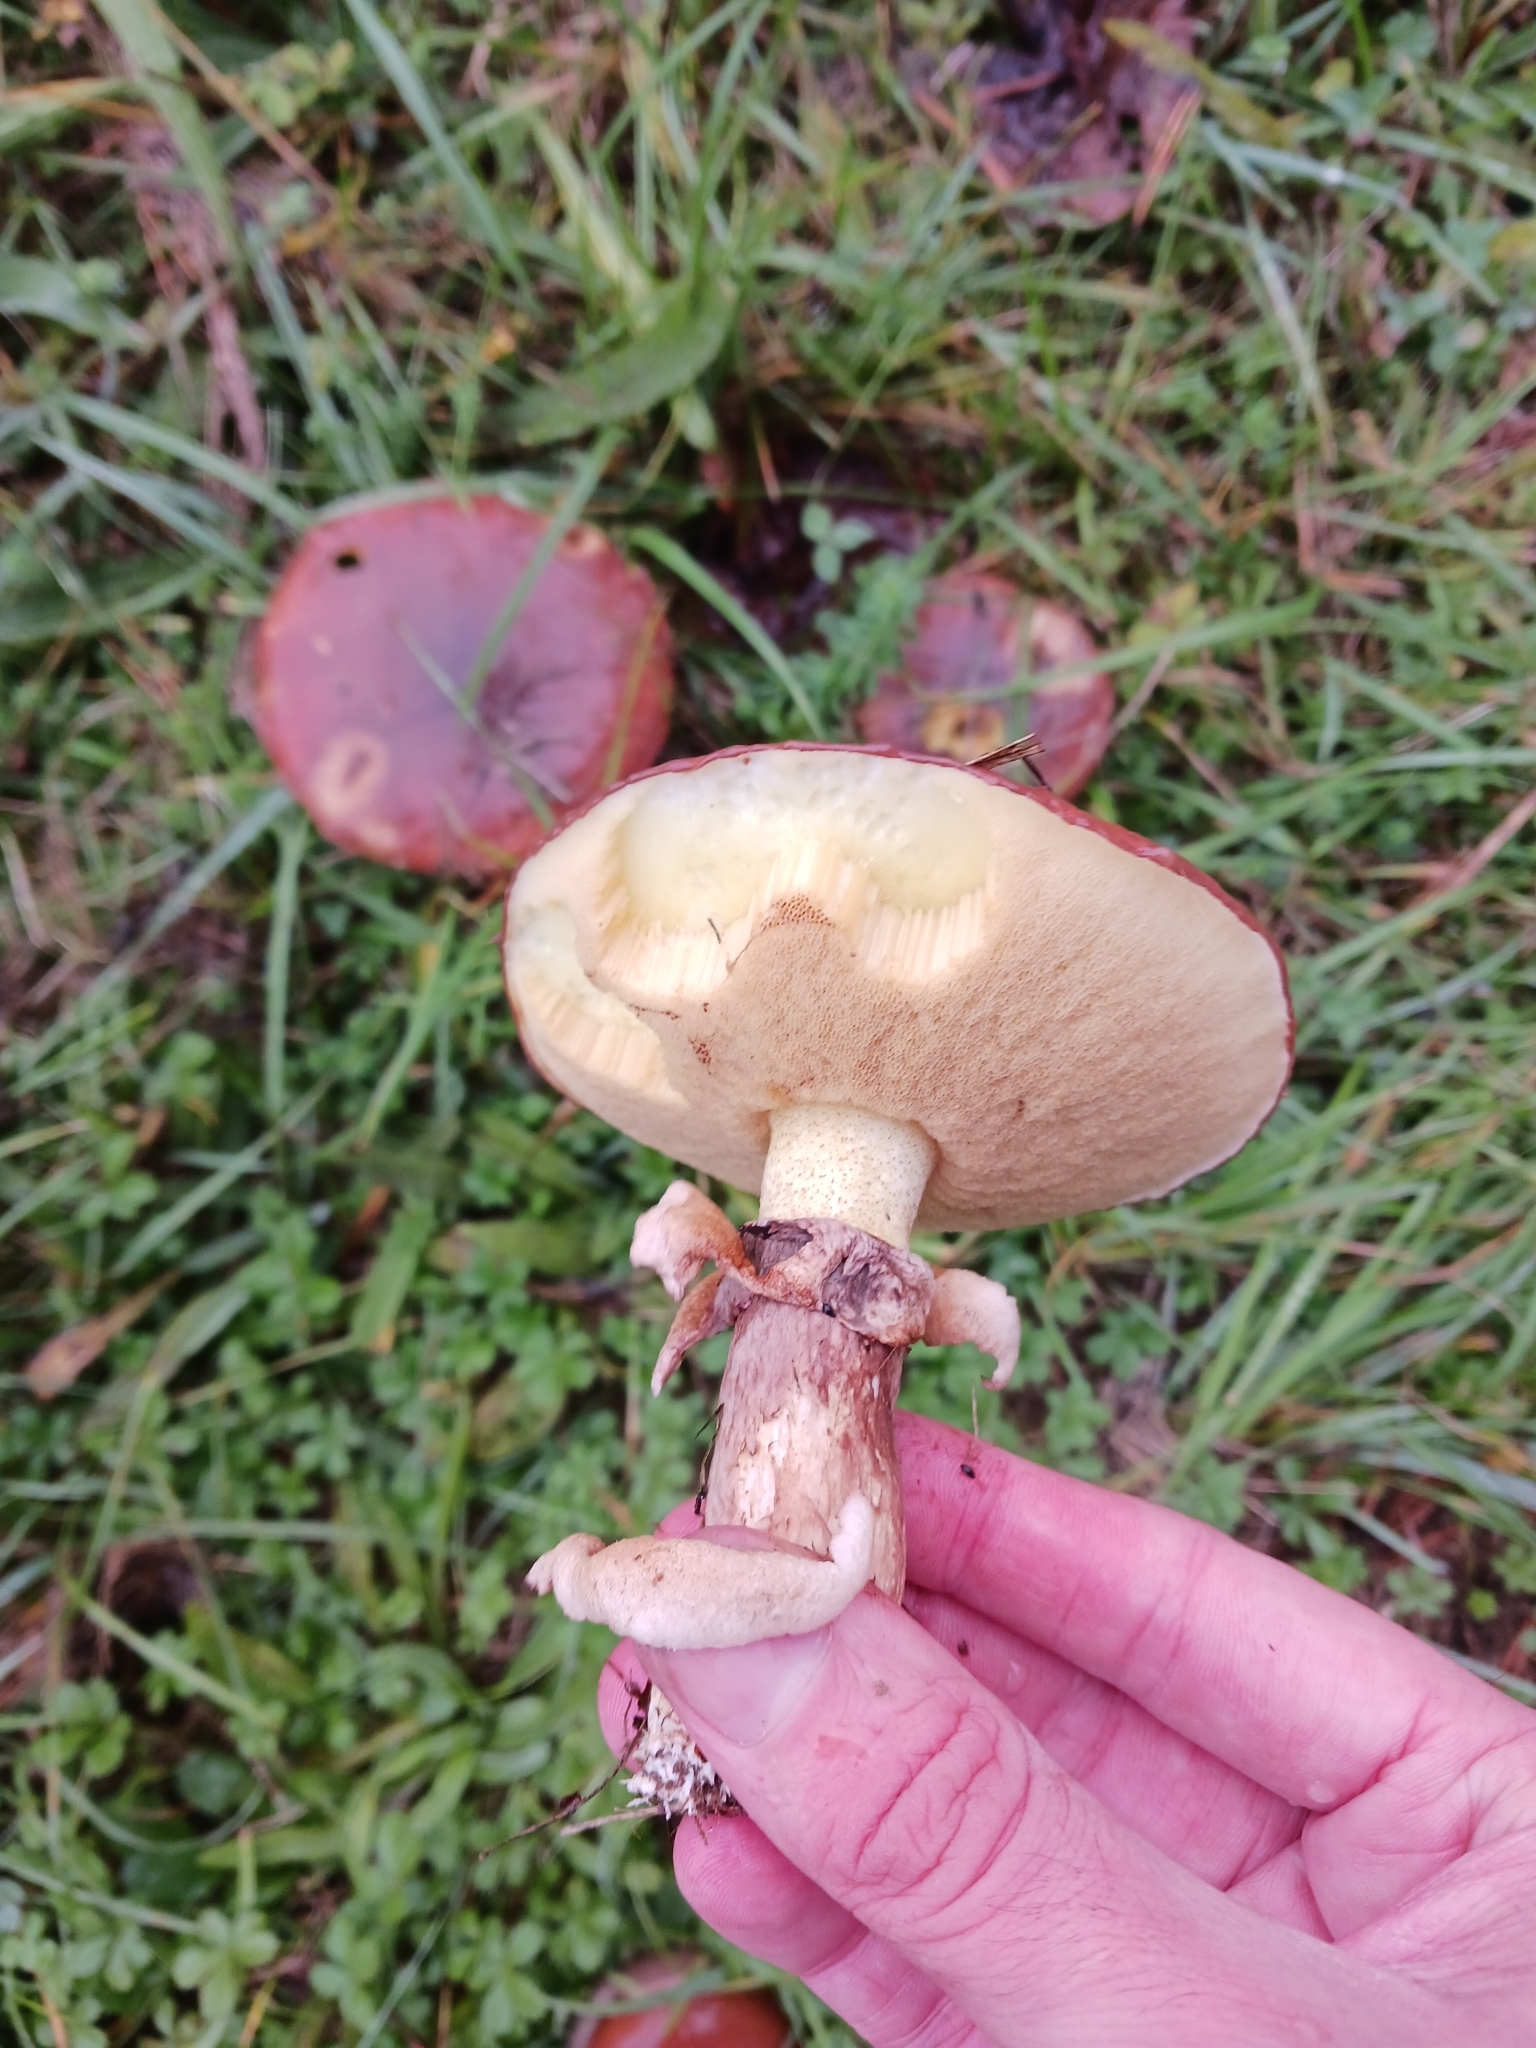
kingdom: Fungi
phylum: Basidiomycota
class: Agaricomycetes
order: Boletales
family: Suillaceae
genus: Suillus
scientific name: Suillus luteus
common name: Slippery jack
